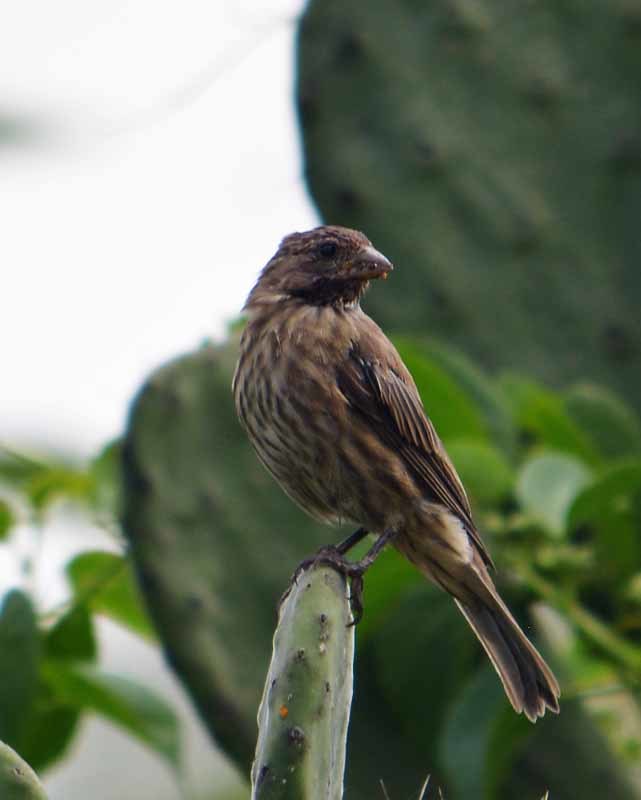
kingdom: Animalia
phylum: Chordata
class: Aves
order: Passeriformes
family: Fringillidae
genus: Haemorhous
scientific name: Haemorhous mexicanus
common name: House finch
